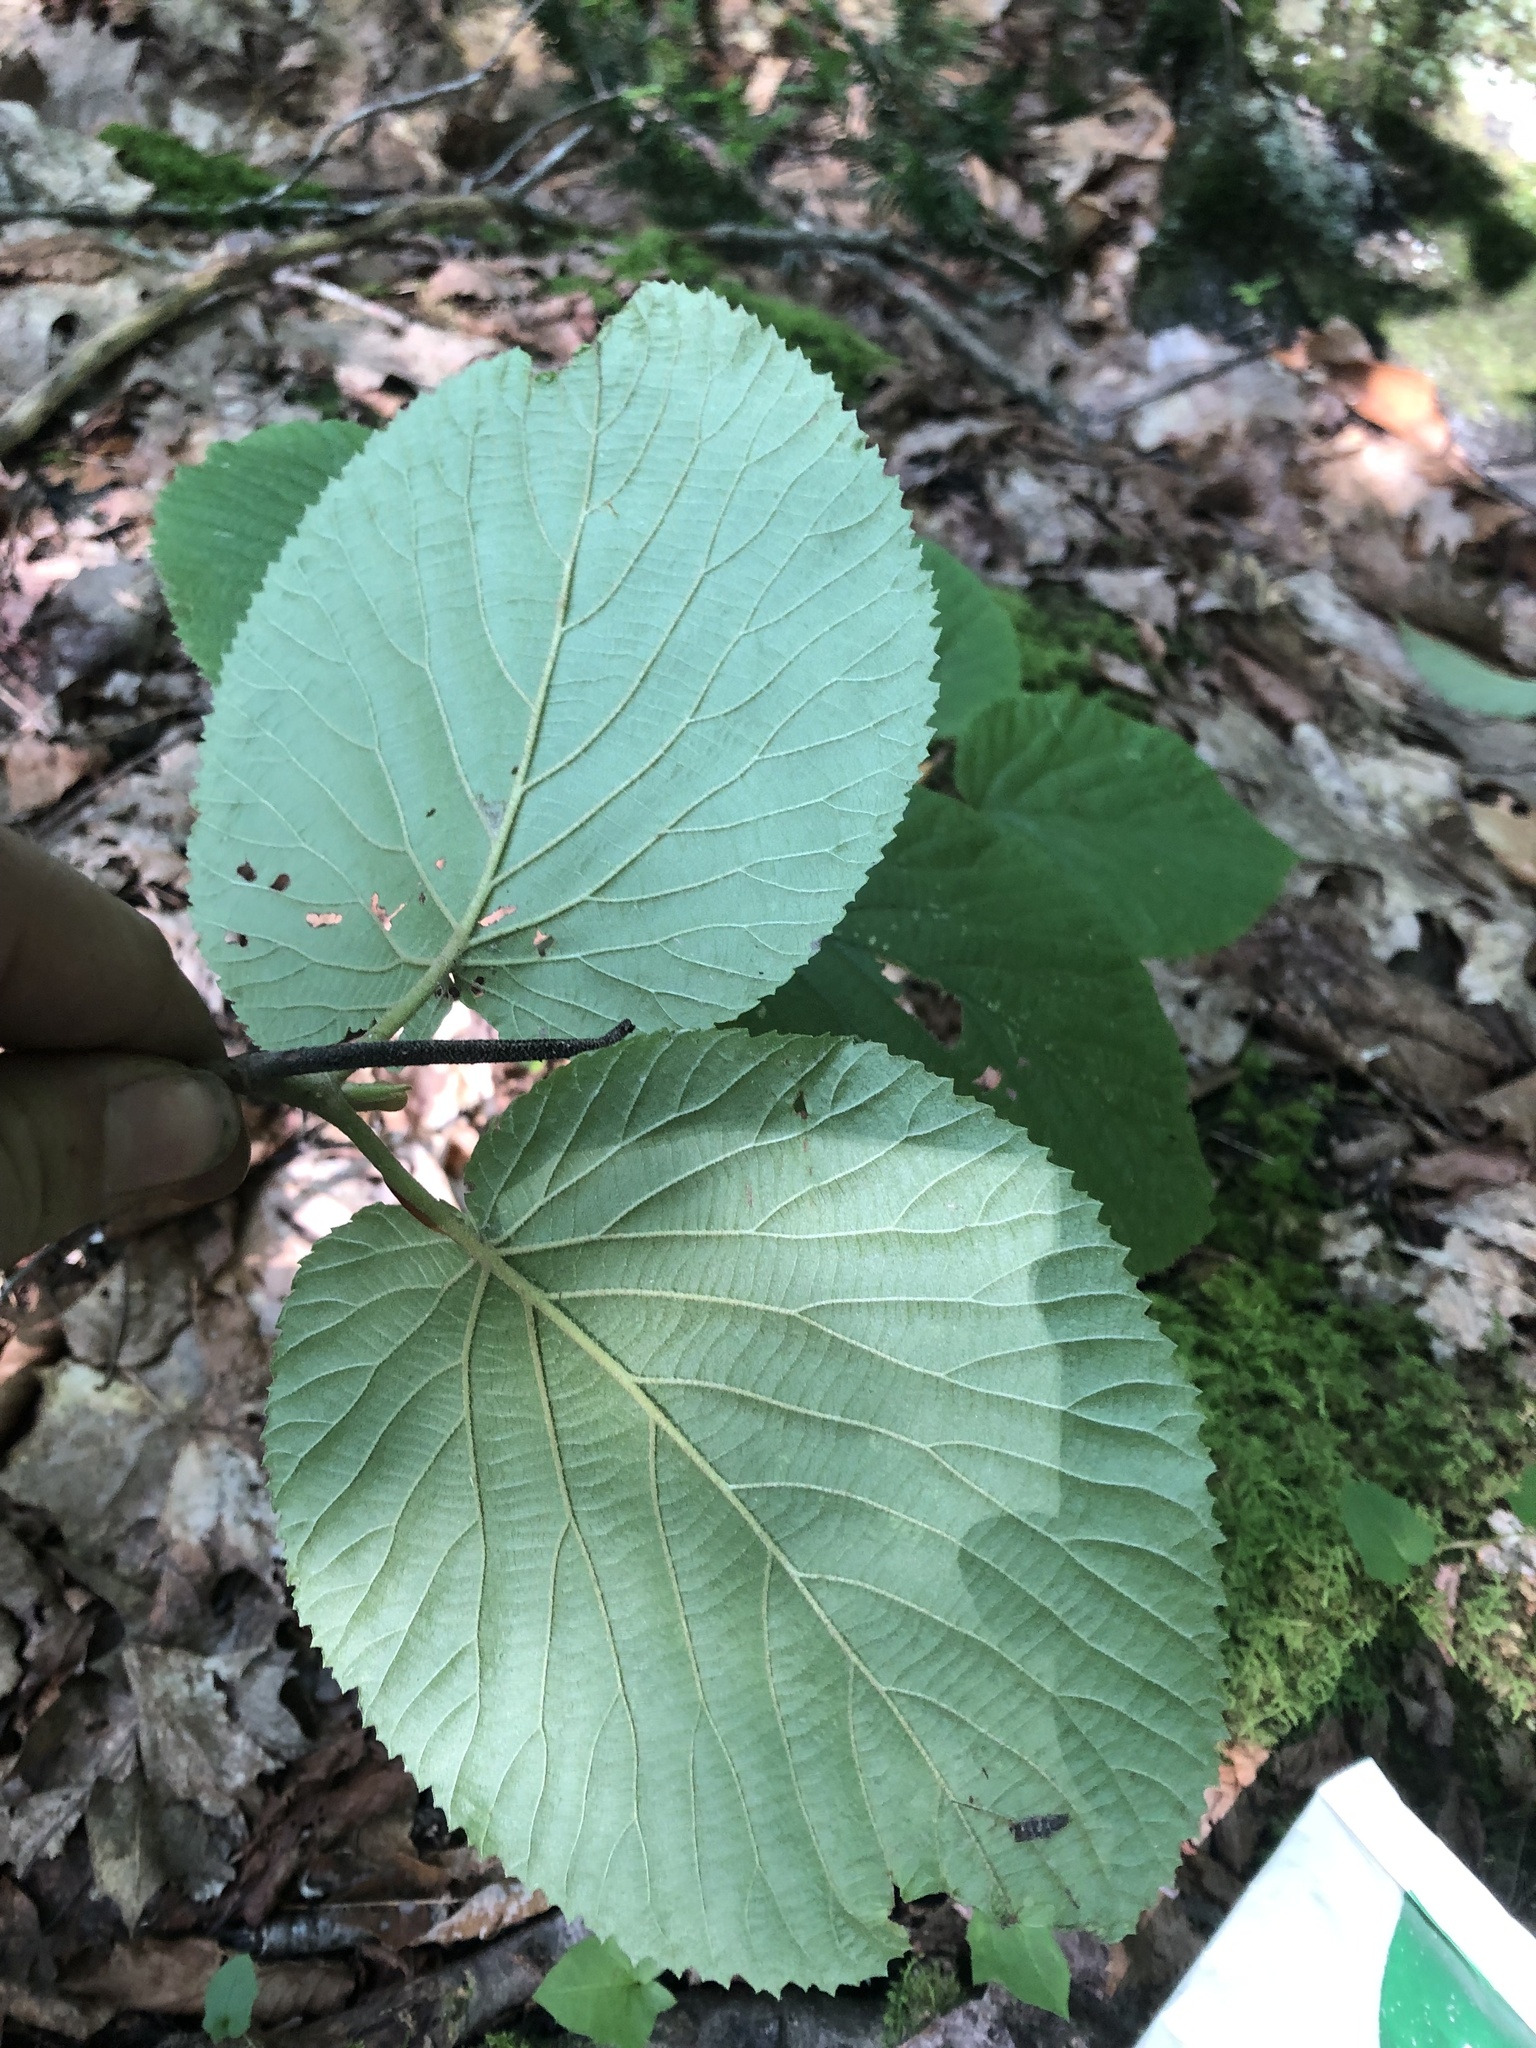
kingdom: Plantae
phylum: Tracheophyta
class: Magnoliopsida
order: Dipsacales
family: Viburnaceae
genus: Viburnum
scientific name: Viburnum lantanoides
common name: Hobblebush
